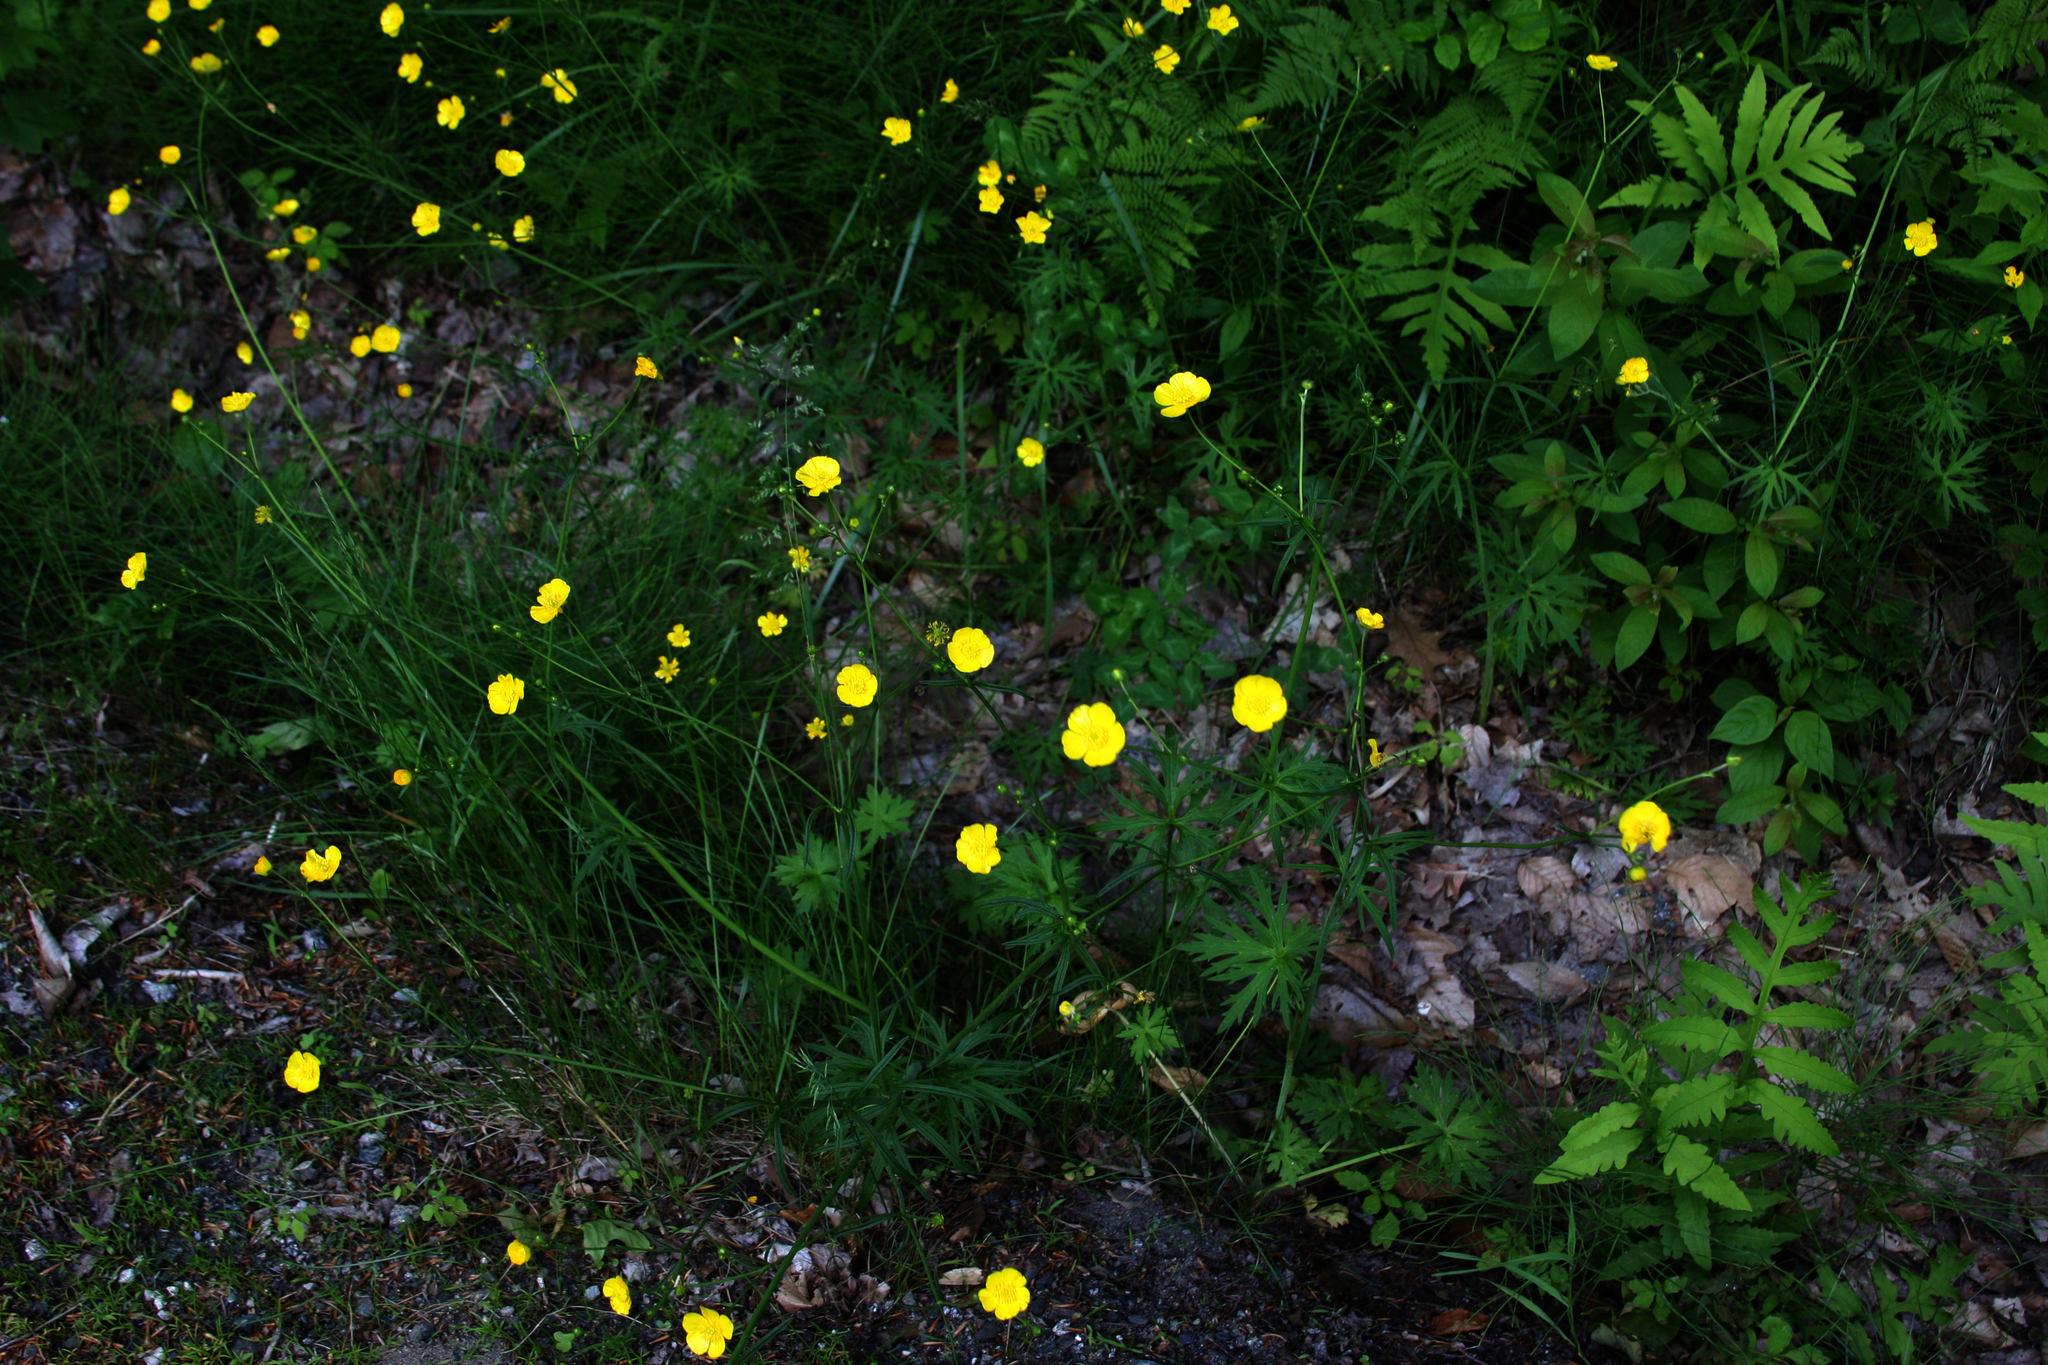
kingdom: Plantae
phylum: Tracheophyta
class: Polypodiopsida
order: Polypodiales
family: Onocleaceae
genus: Onoclea
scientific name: Onoclea sensibilis
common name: Sensitive fern
